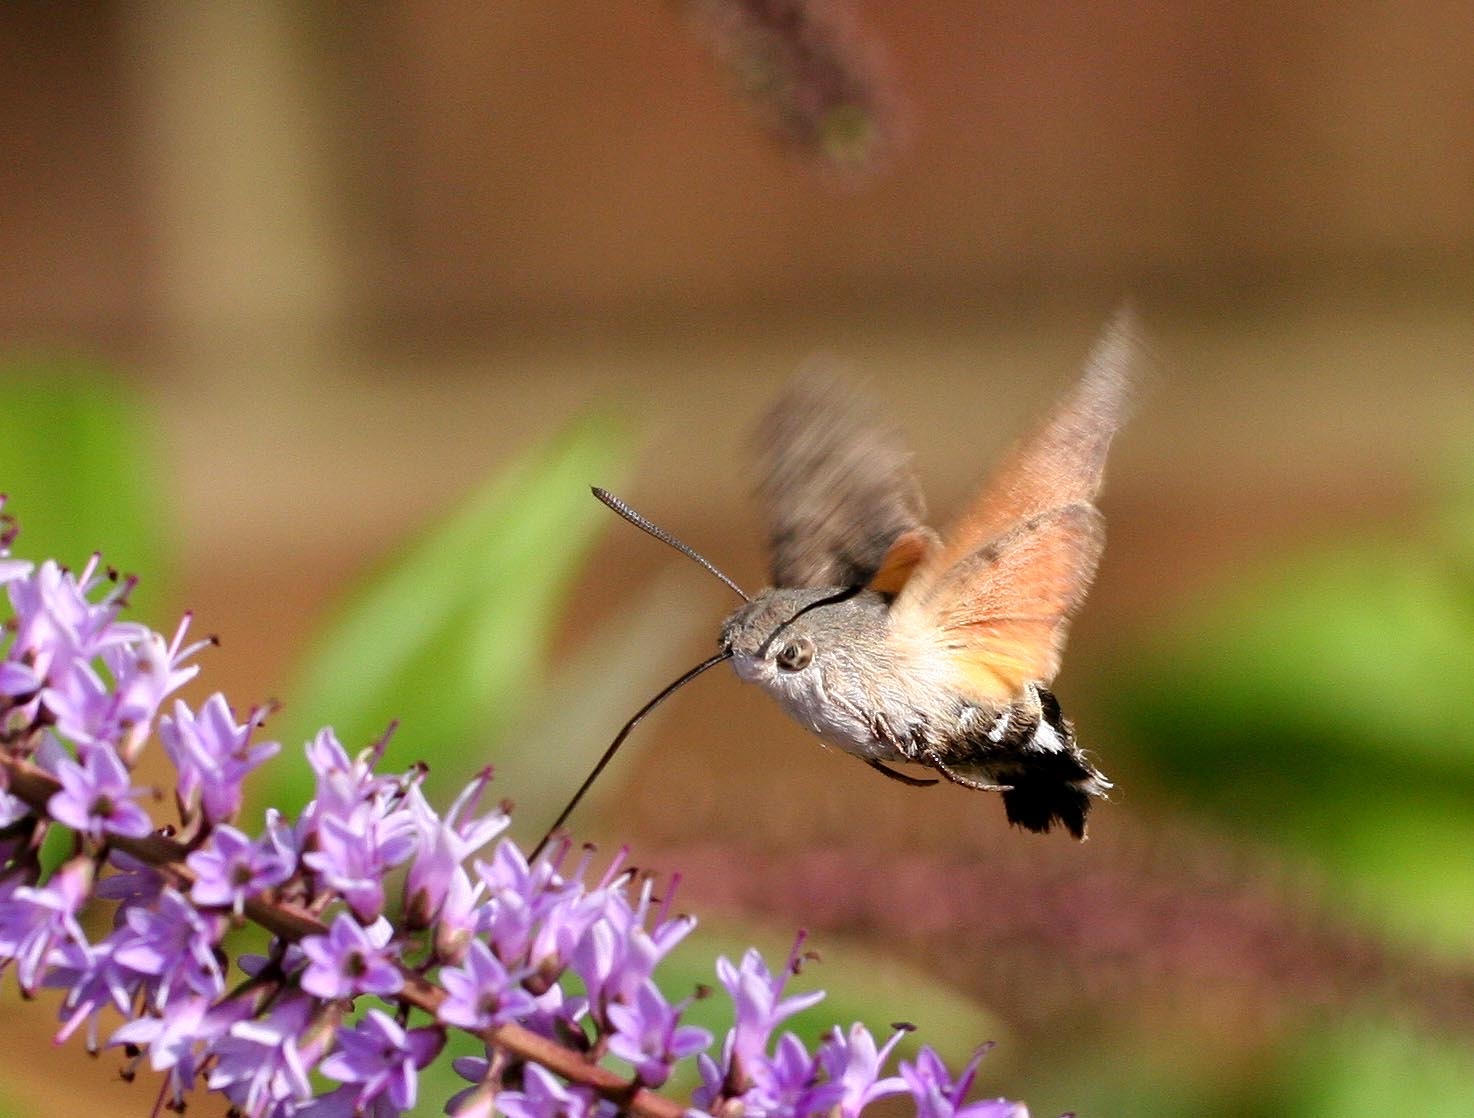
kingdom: Animalia
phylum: Arthropoda
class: Insecta
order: Lepidoptera
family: Sphingidae
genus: Macroglossum
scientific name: Macroglossum stellatarum
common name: Humming-bird hawk-moth
